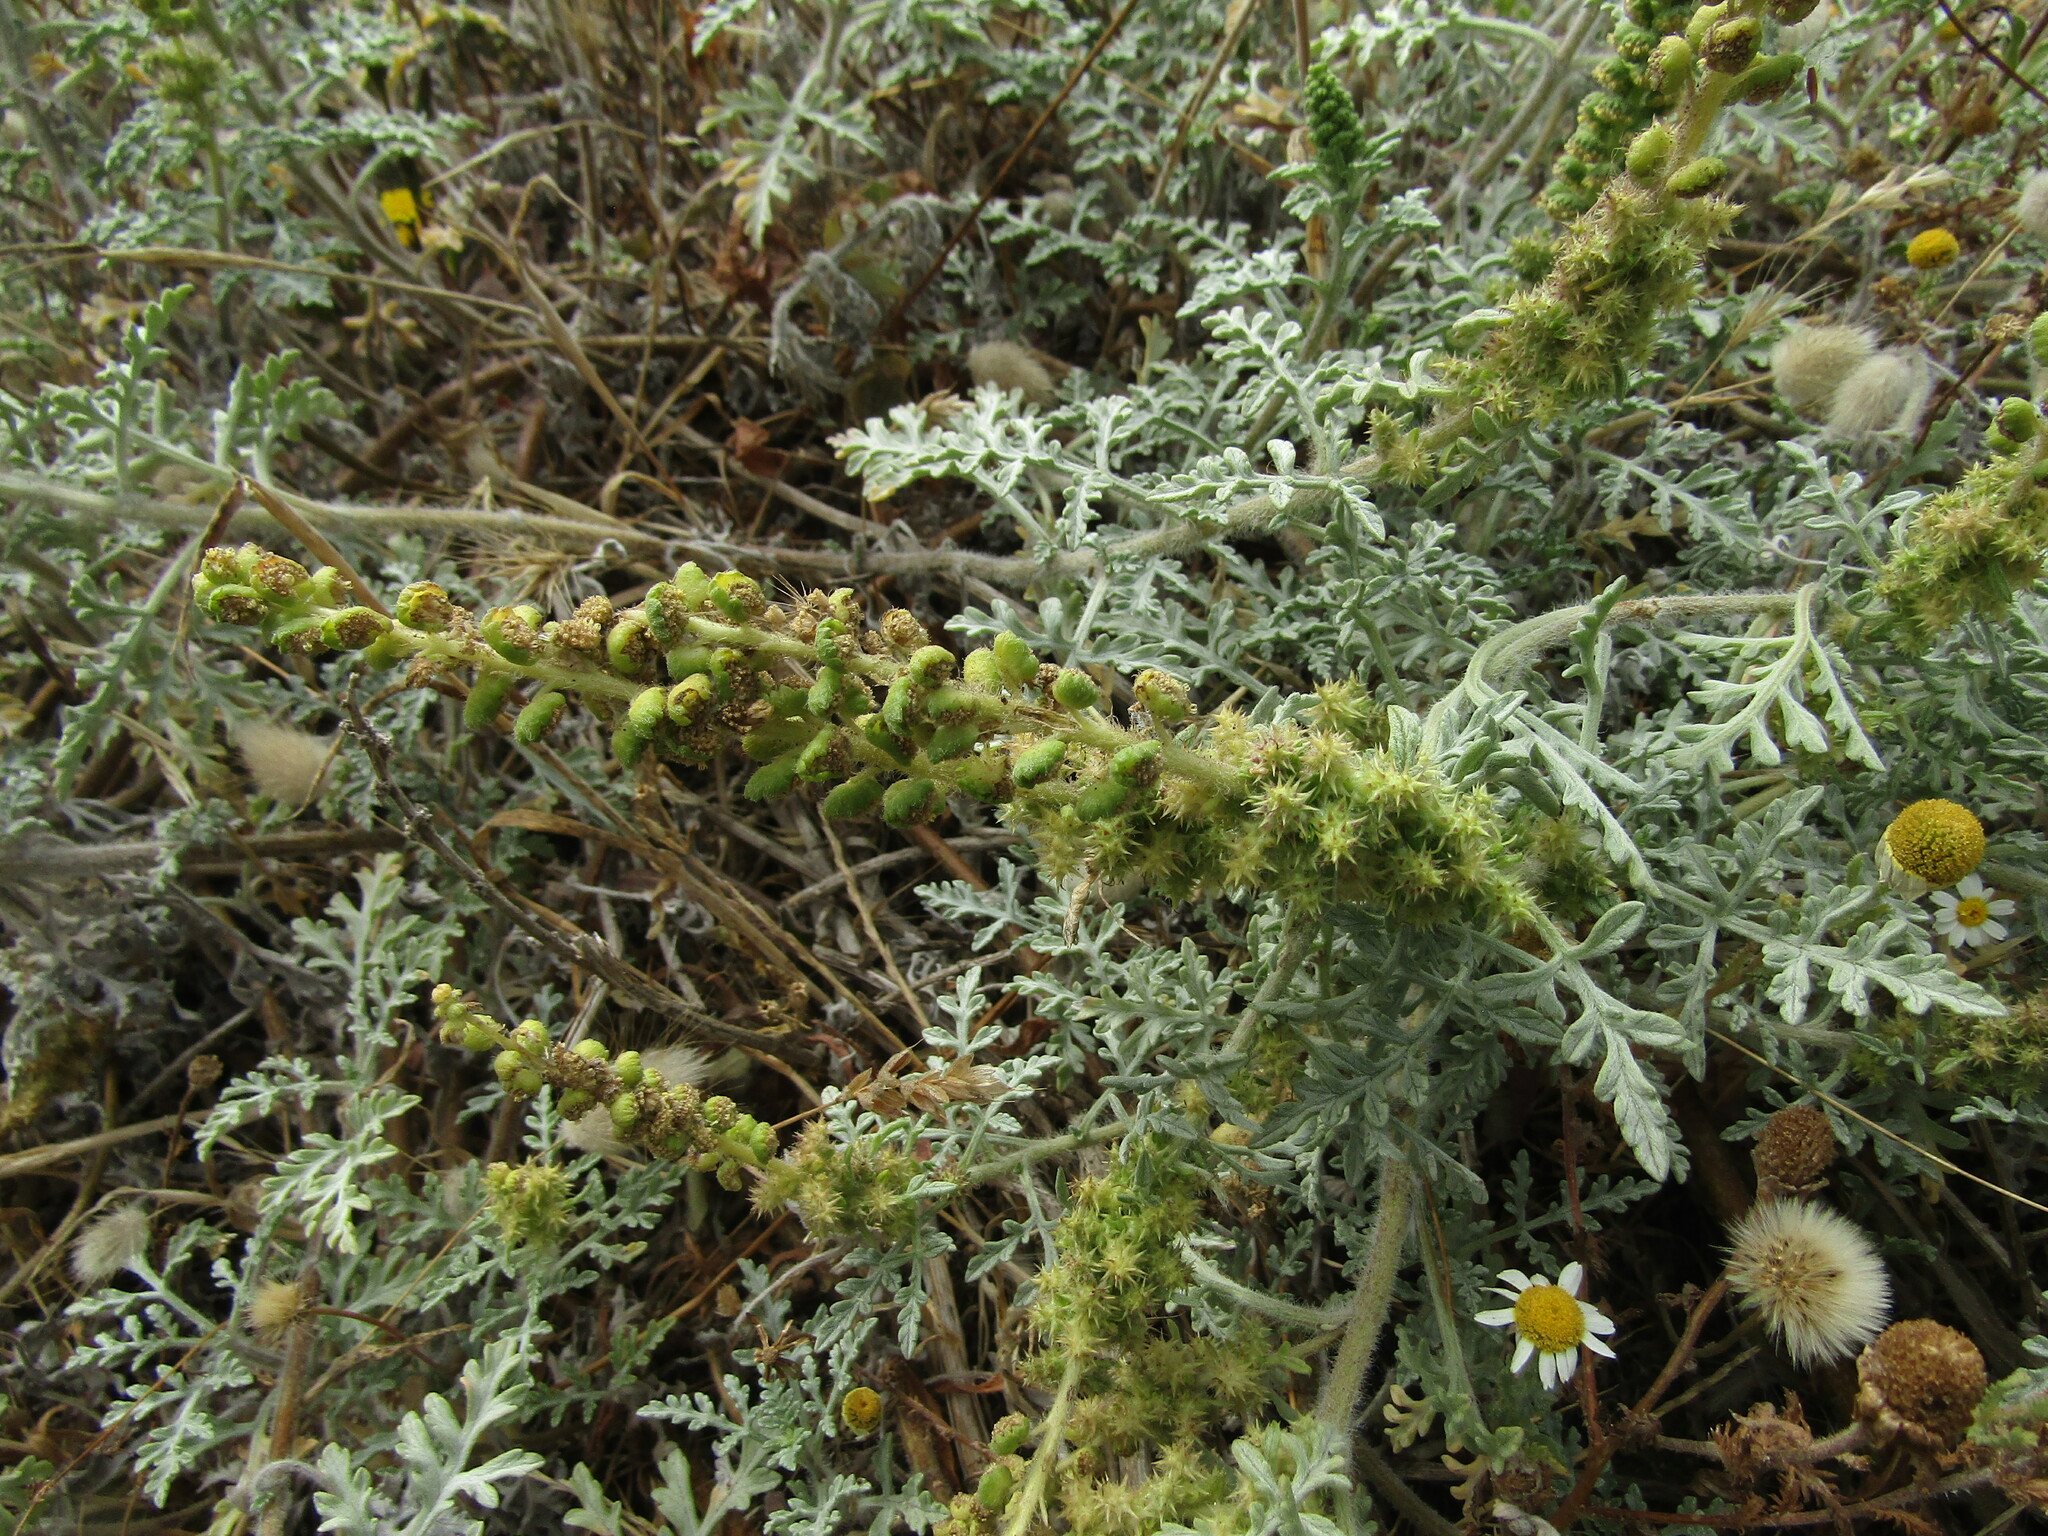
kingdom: Plantae
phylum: Tracheophyta
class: Magnoliopsida
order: Asterales
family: Asteraceae
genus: Ambrosia
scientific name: Ambrosia chamissonis
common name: Beachbur
